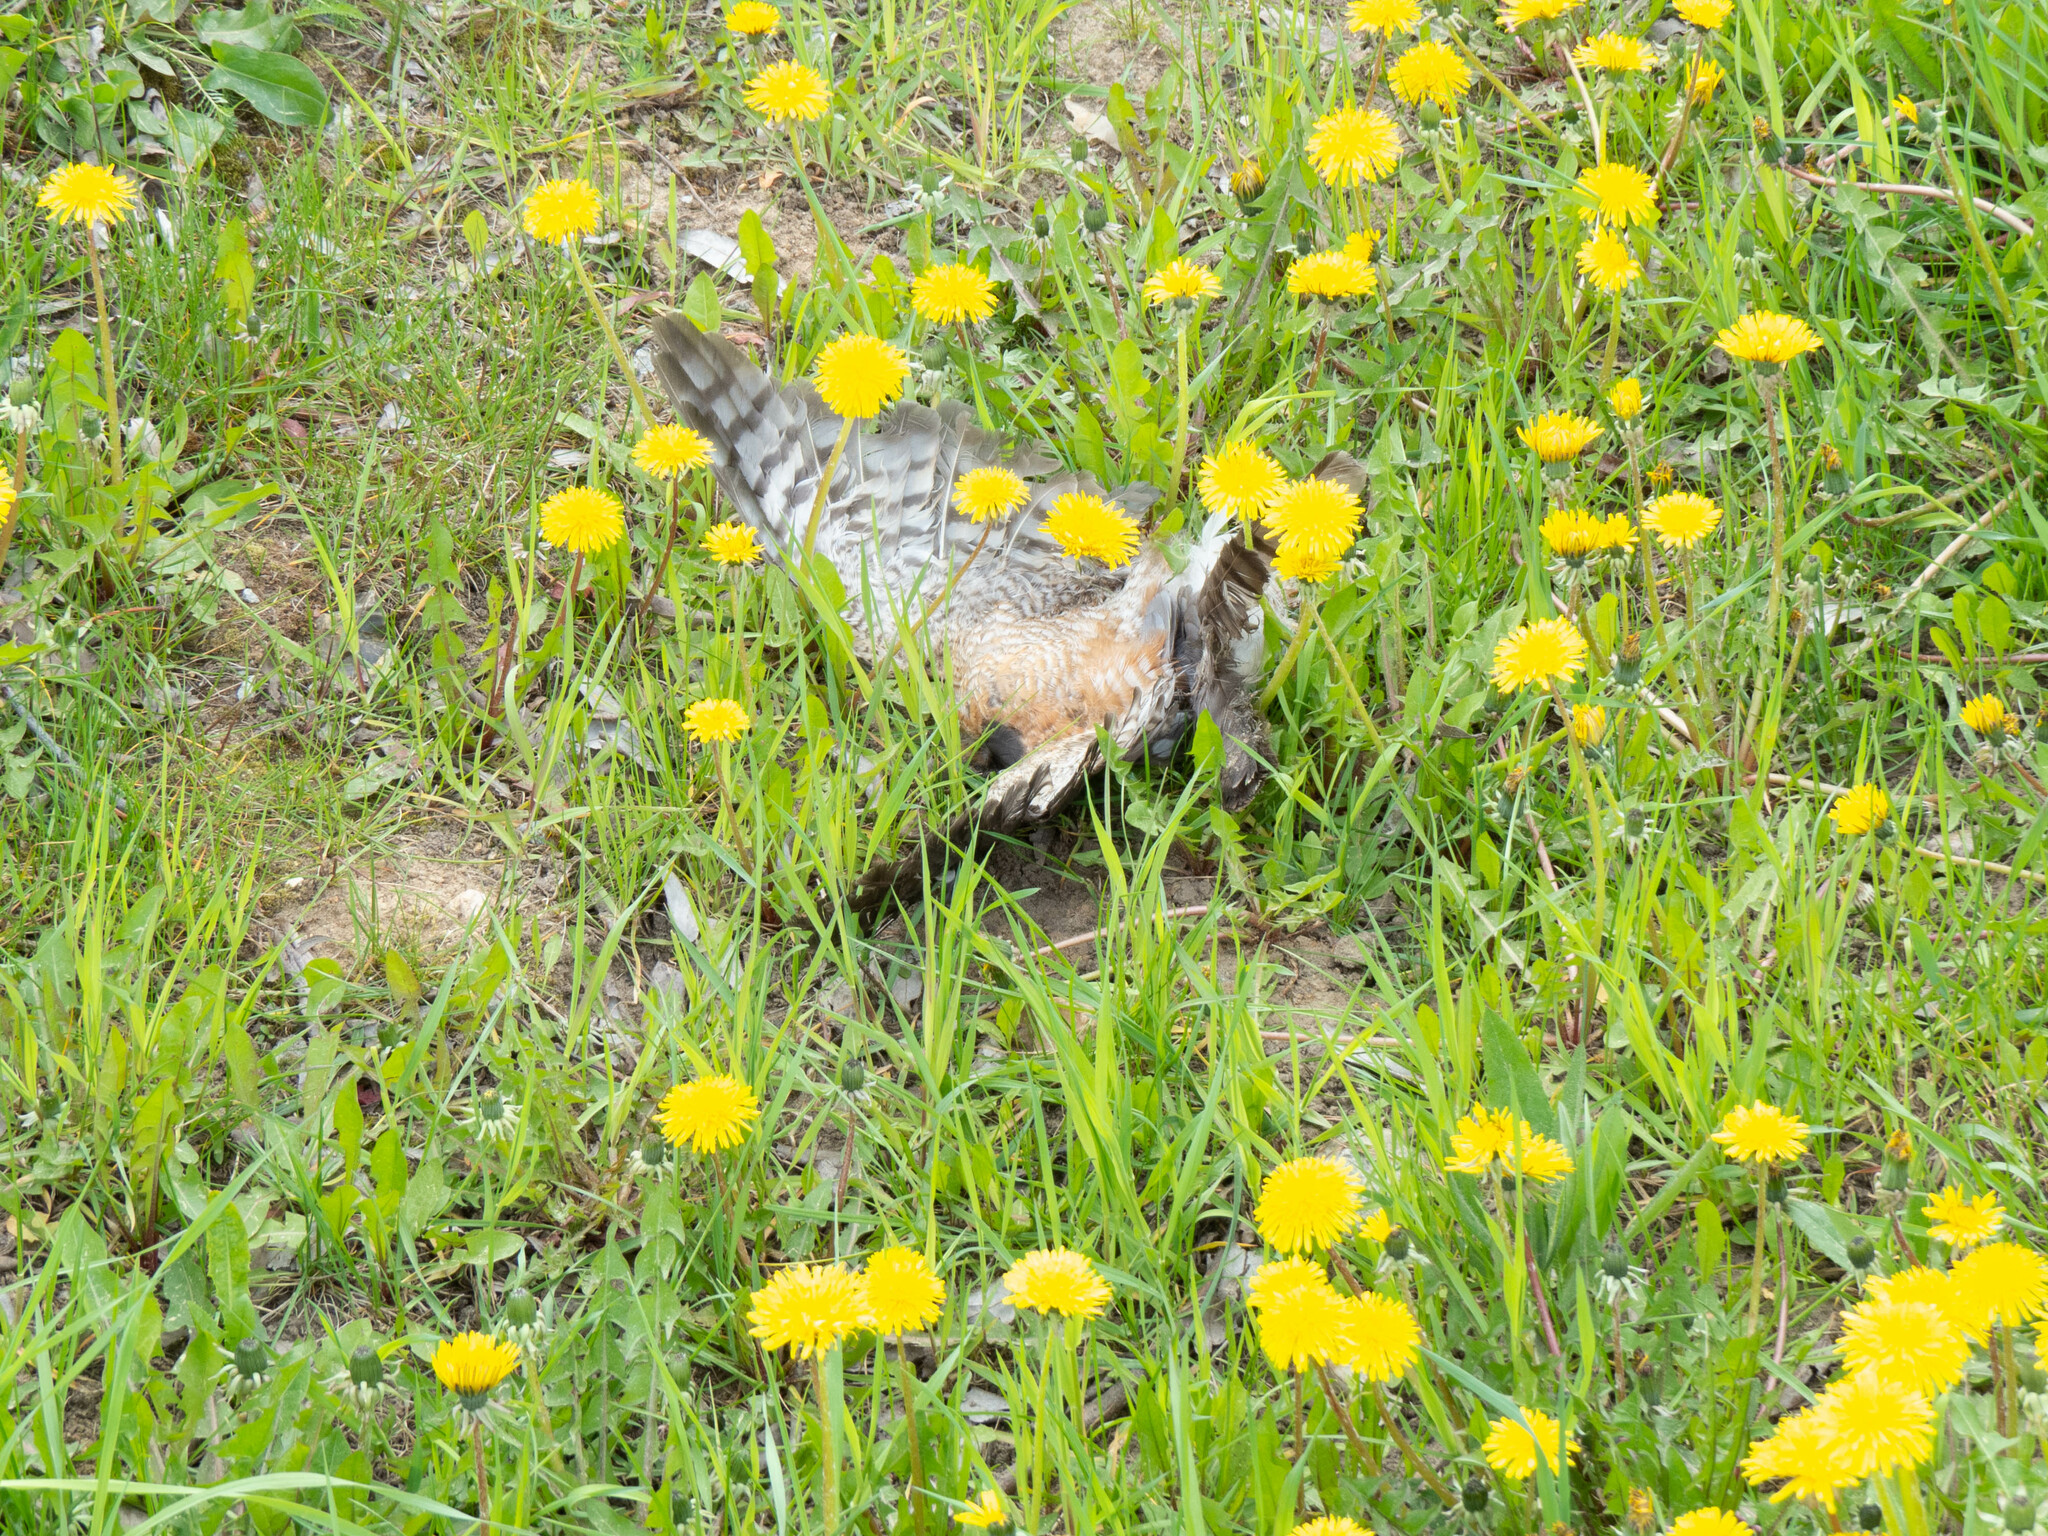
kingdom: Animalia
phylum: Chordata
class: Aves
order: Accipitriformes
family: Accipitridae
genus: Accipiter
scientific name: Accipiter nisus
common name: Eurasian sparrowhawk
